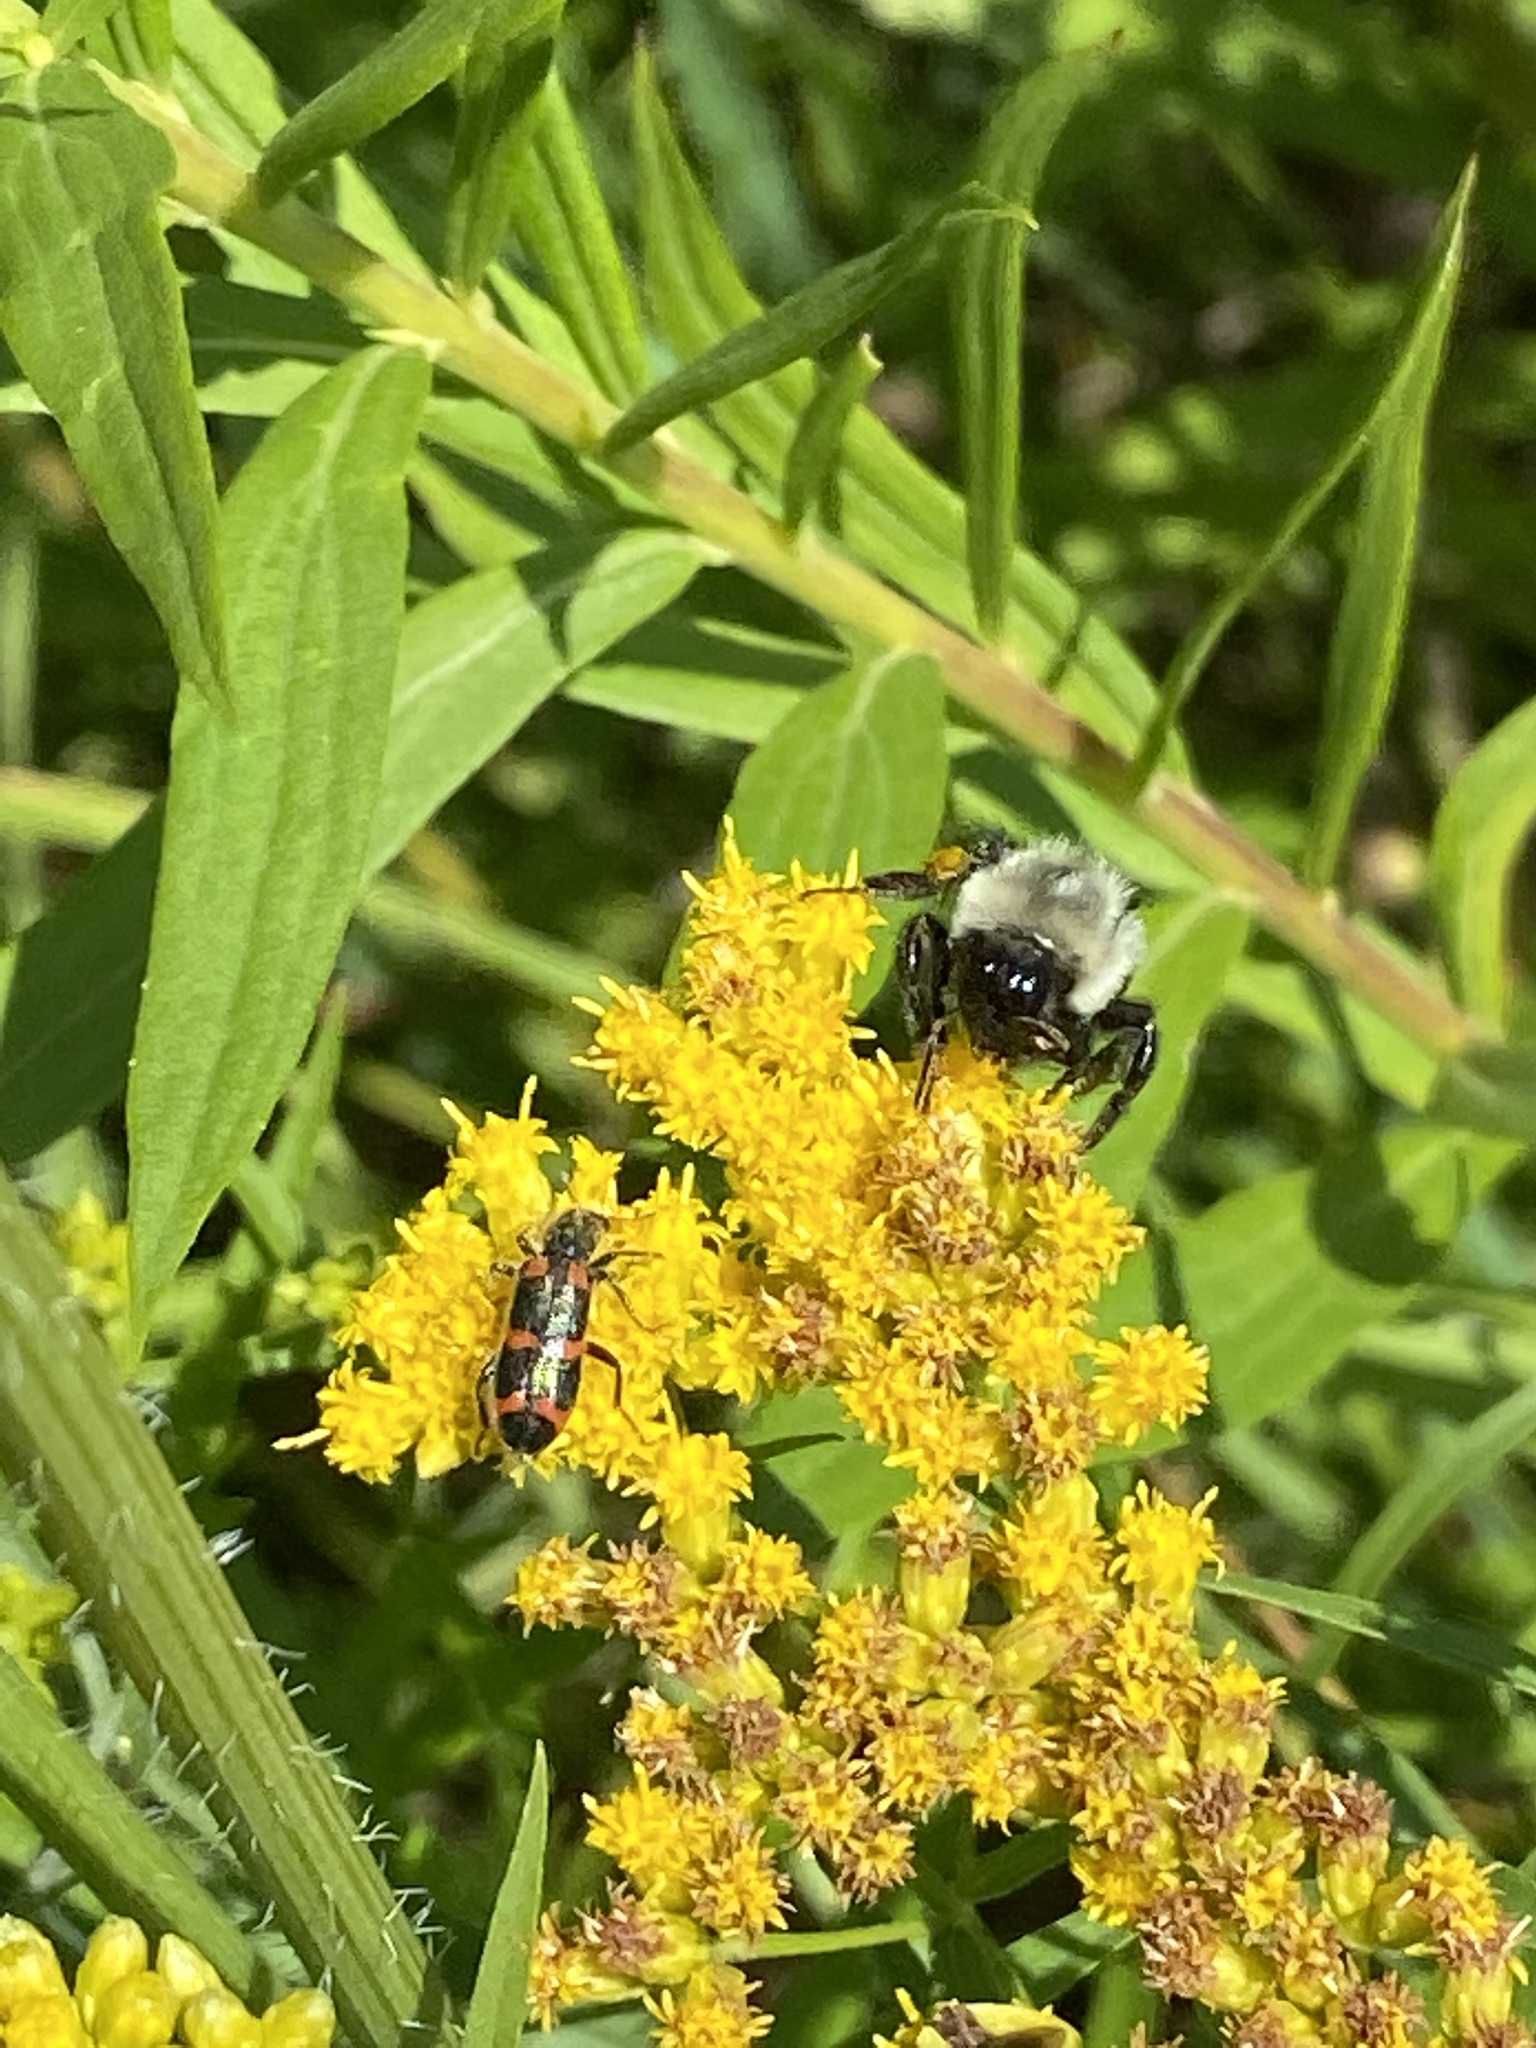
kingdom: Animalia
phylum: Arthropoda
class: Insecta
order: Coleoptera
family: Cleridae
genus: Trichodes
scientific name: Trichodes nutalli
